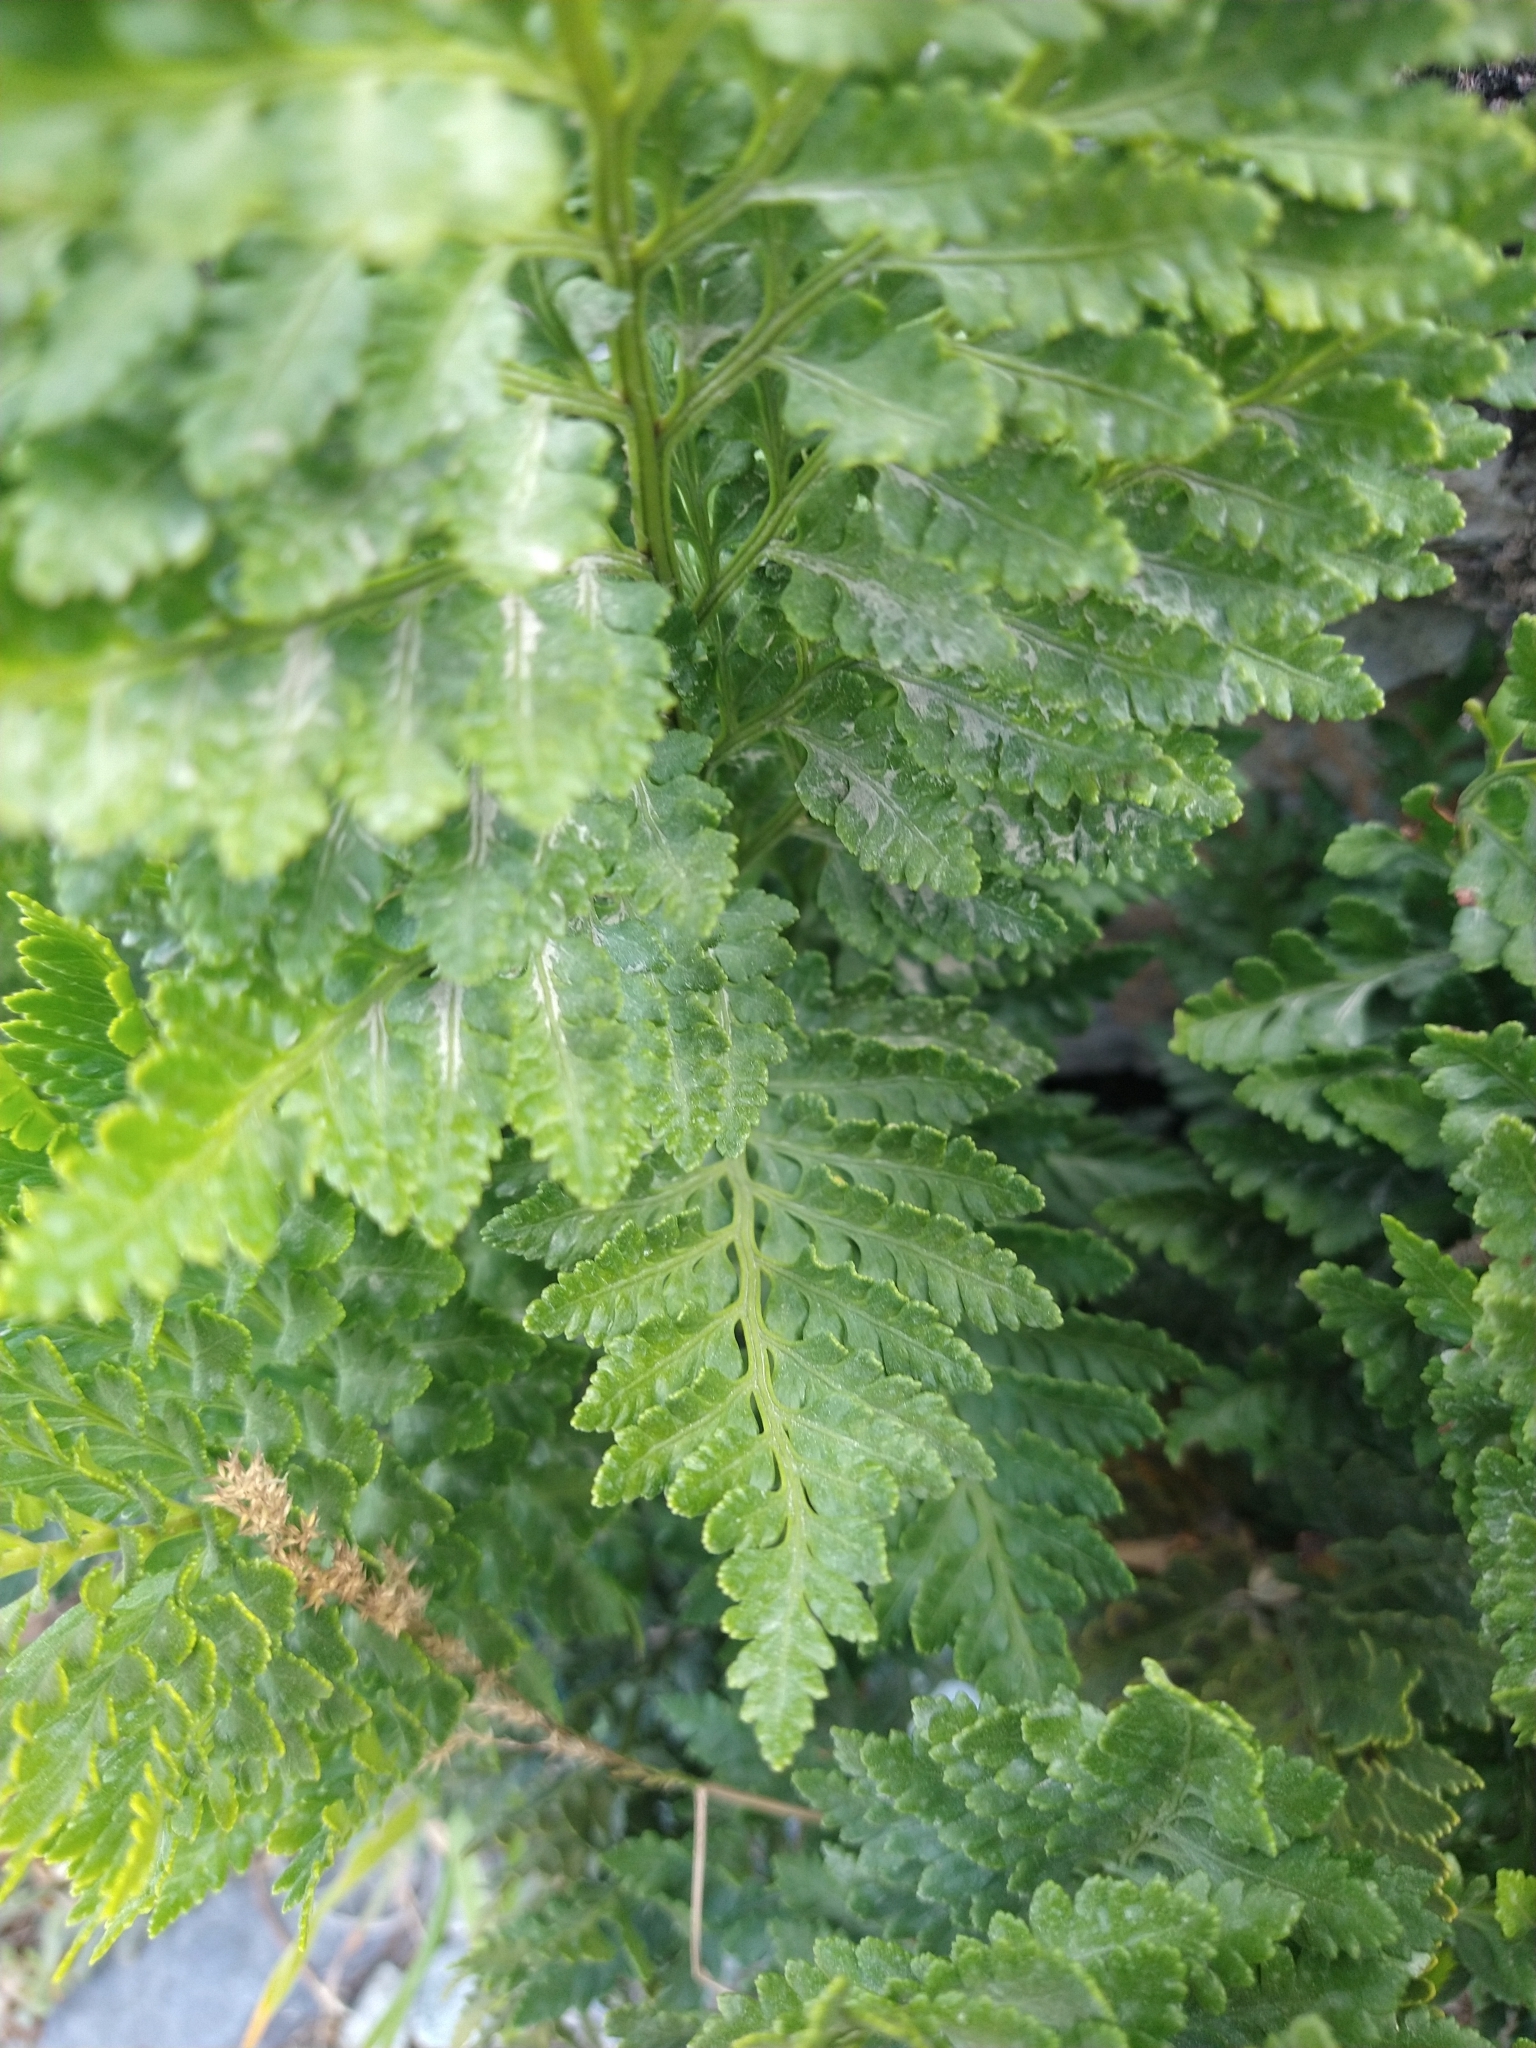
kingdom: Plantae
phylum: Tracheophyta
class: Polypodiopsida
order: Polypodiales
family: Dryopteridaceae
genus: Rumohra
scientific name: Rumohra adiantiformis
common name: Leather fern
